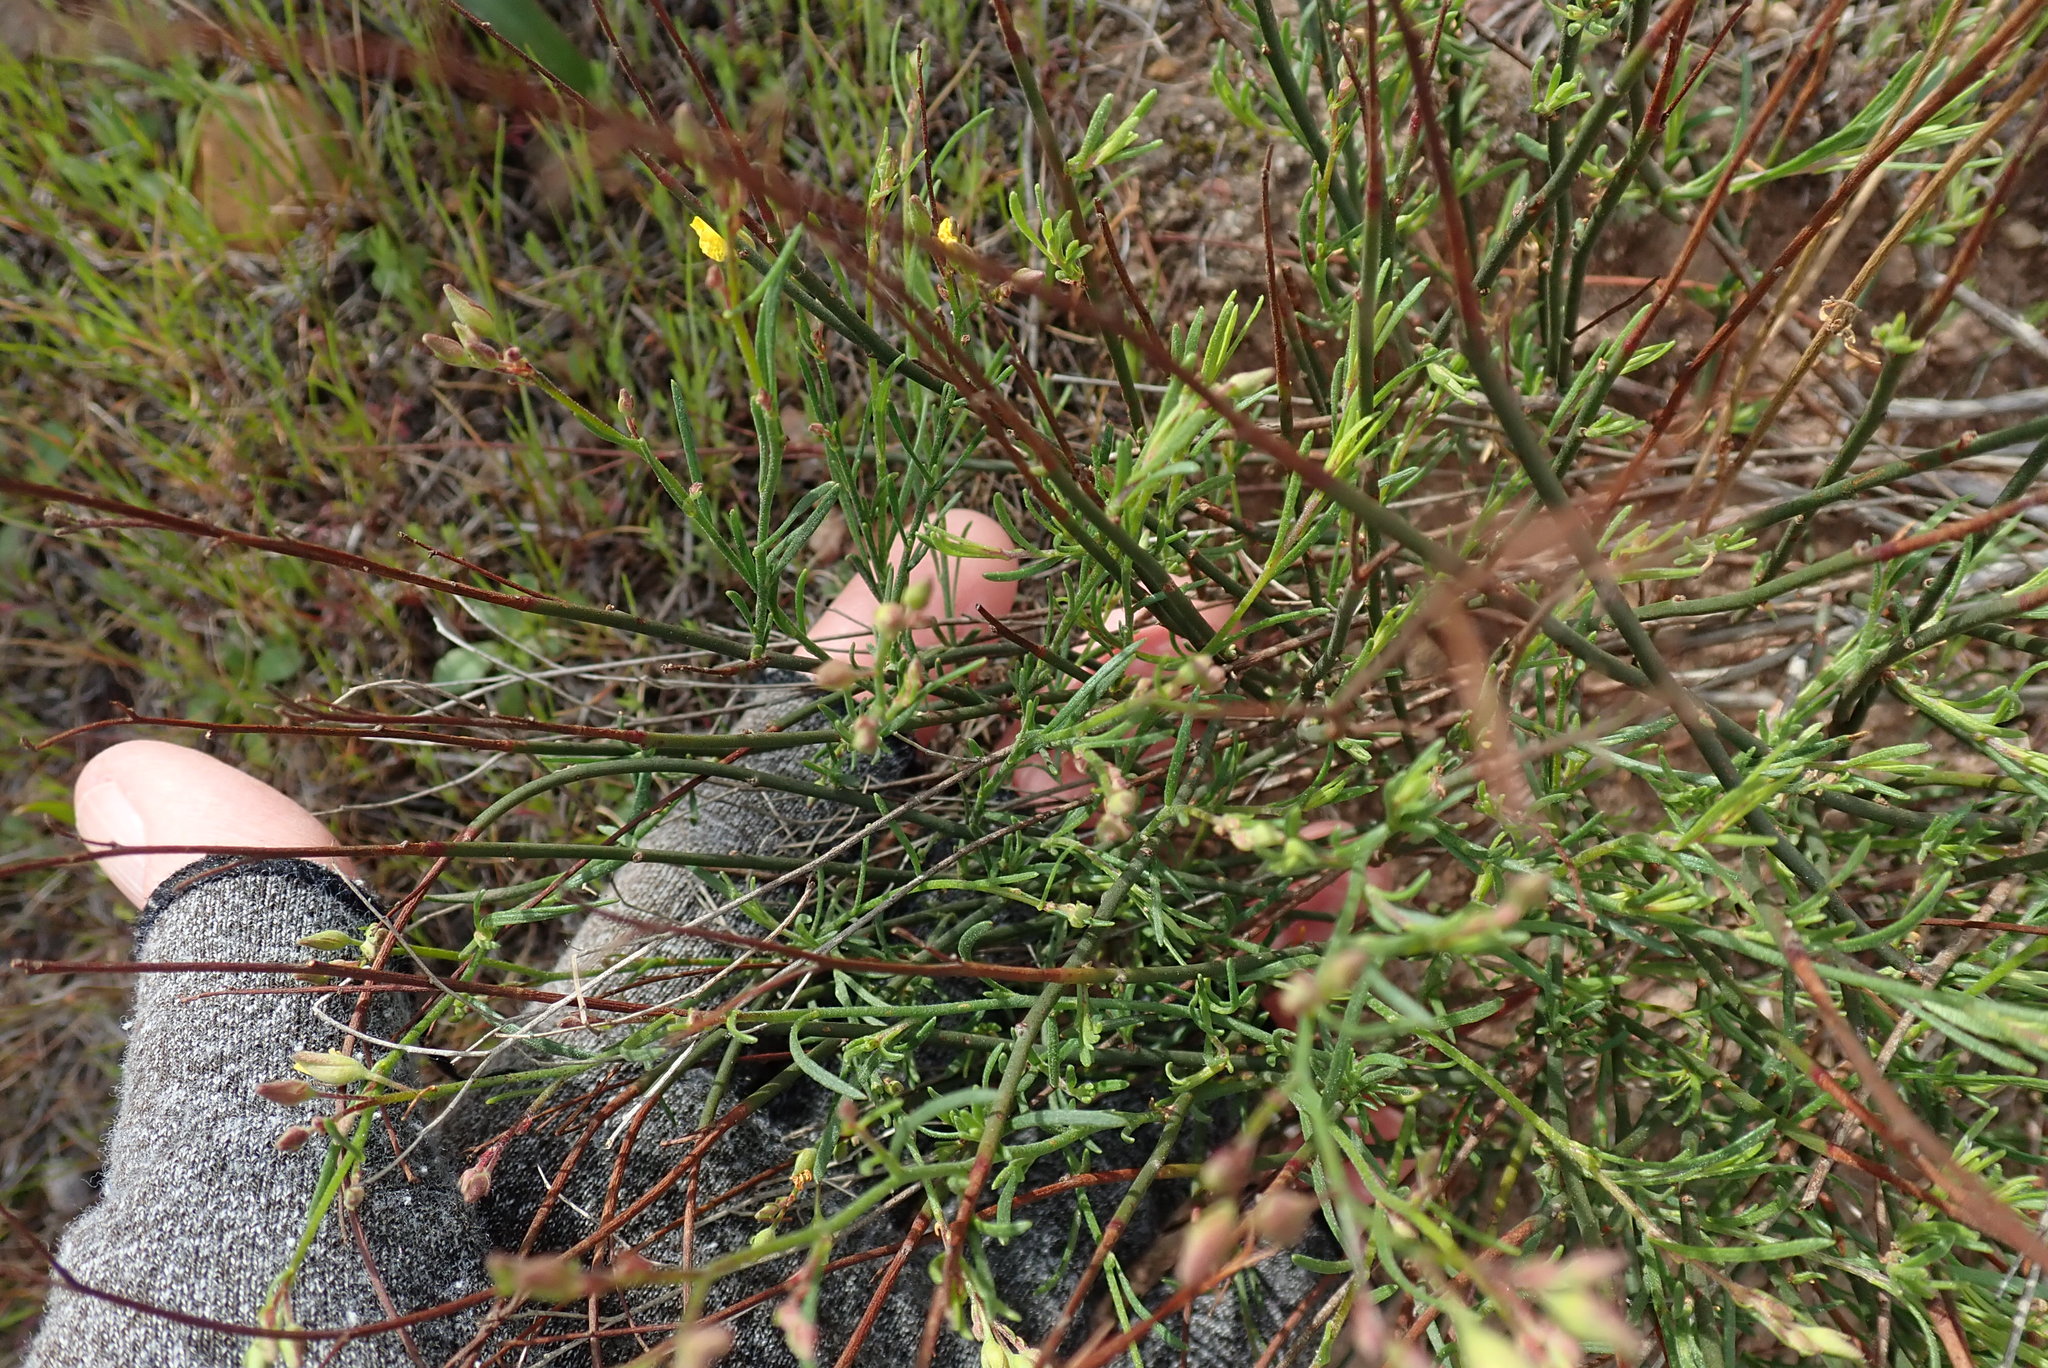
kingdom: Plantae
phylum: Tracheophyta
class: Magnoliopsida
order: Malvales
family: Cistaceae
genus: Crocanthemum
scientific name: Crocanthemum scoparium
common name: Broom-rose
